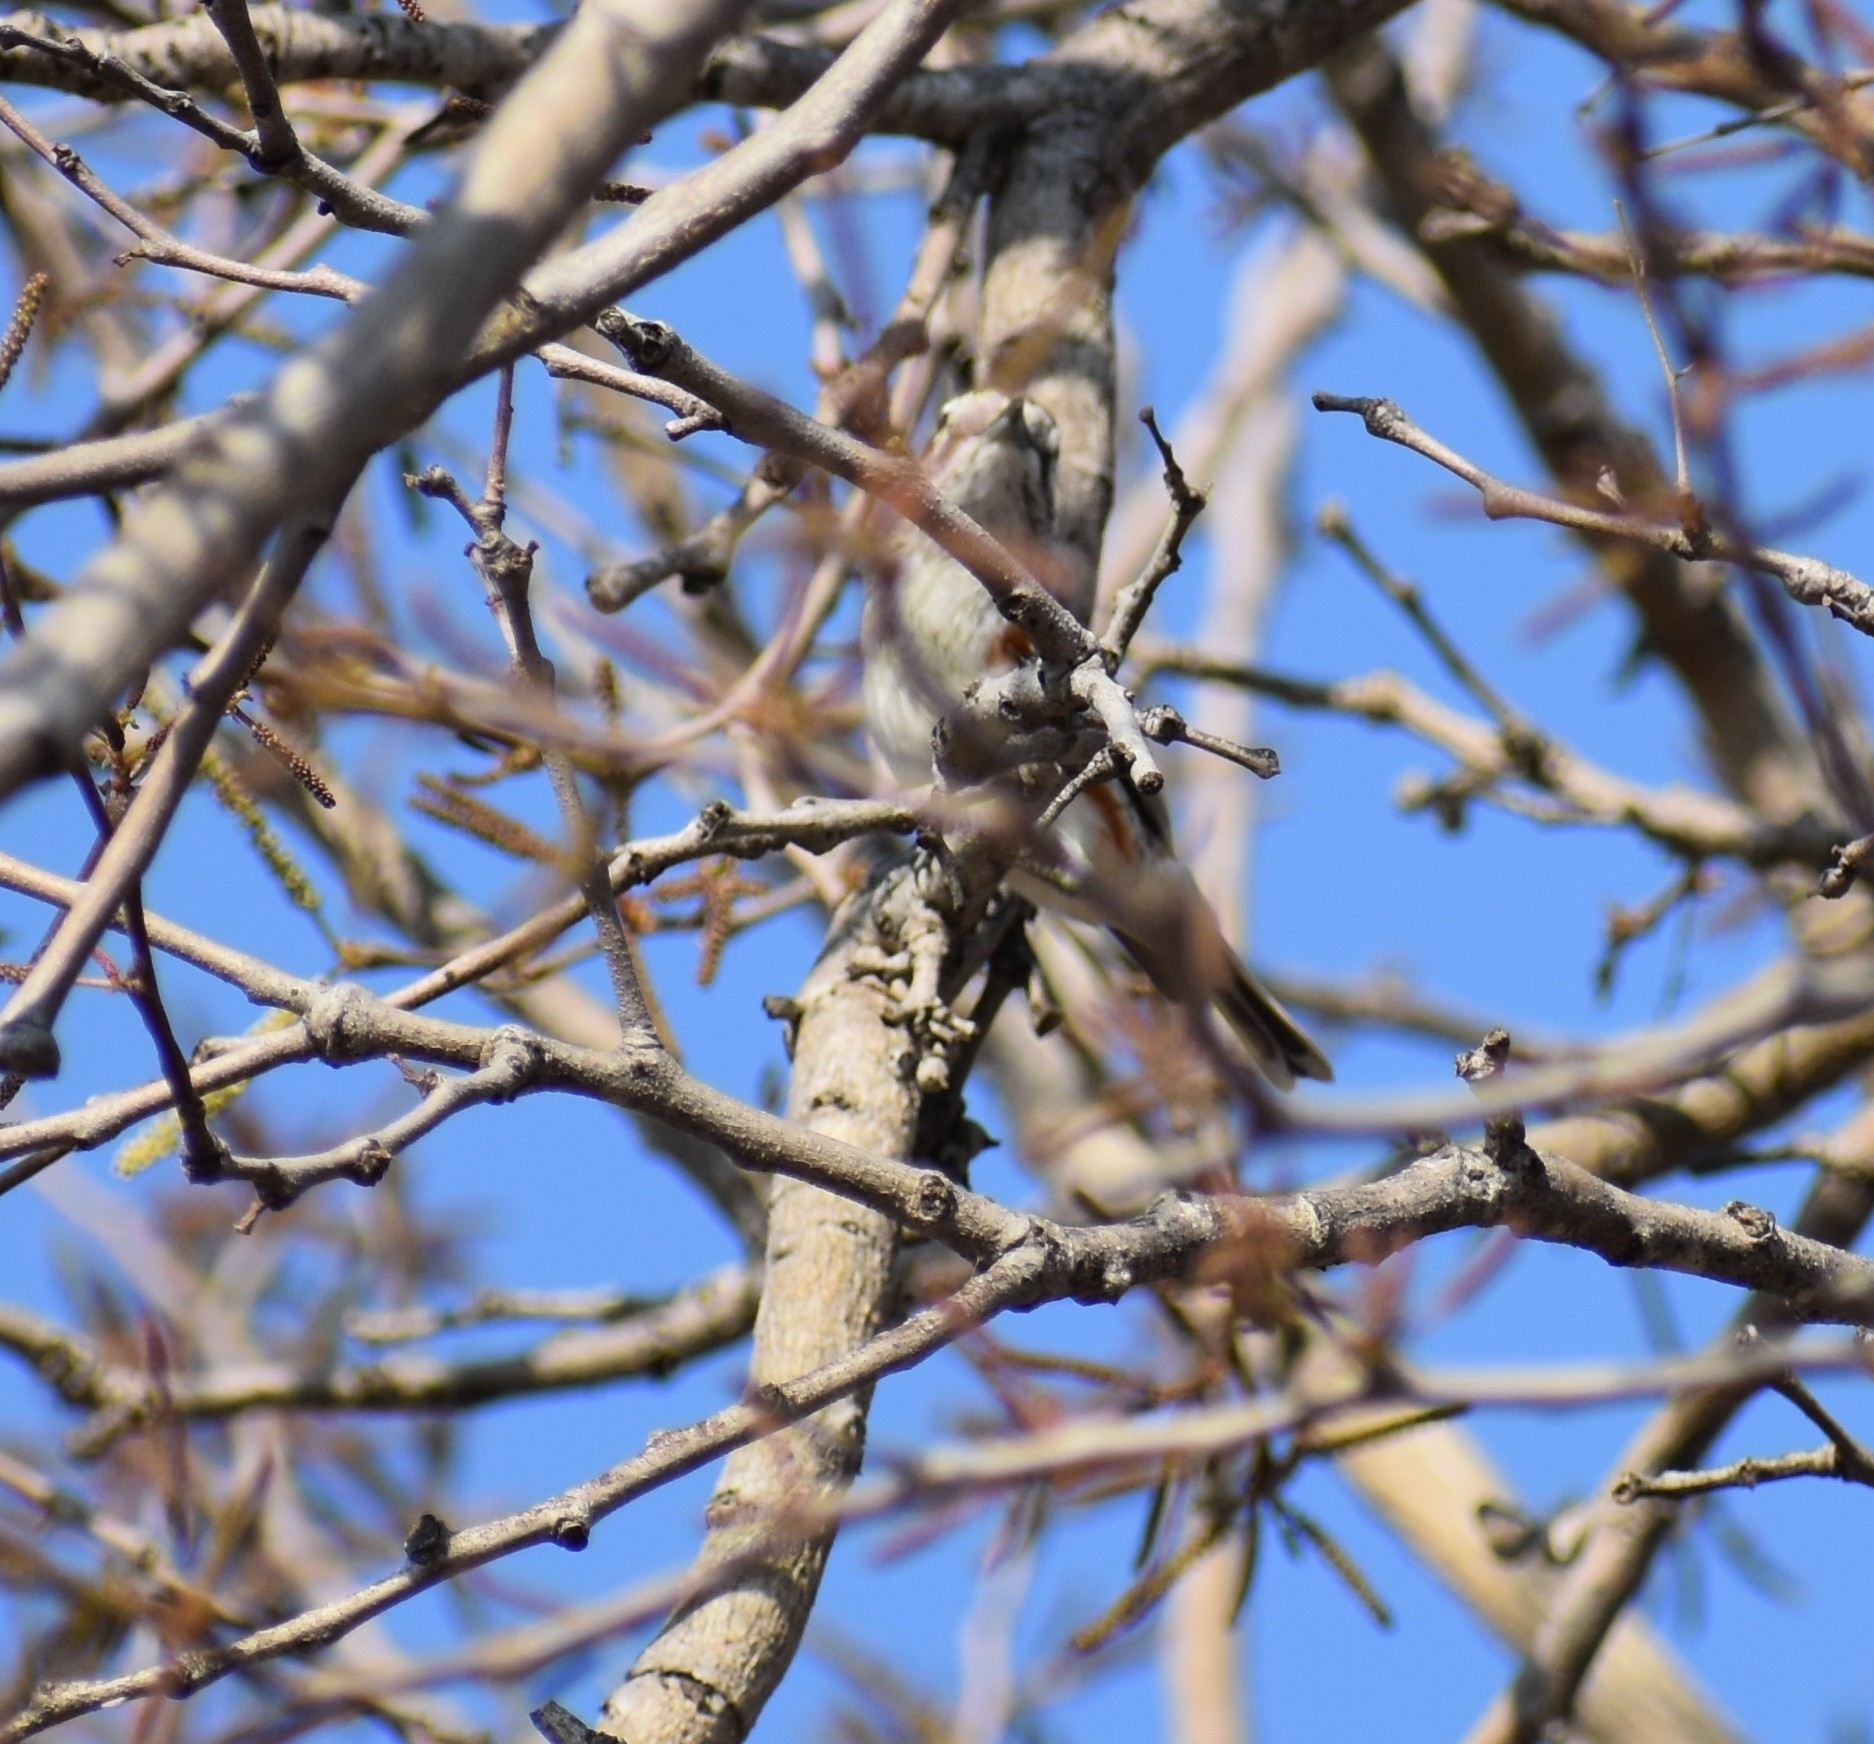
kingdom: Animalia
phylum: Chordata
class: Aves
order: Passeriformes
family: Malaconotidae
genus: Nilaus
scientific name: Nilaus afer
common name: Brubru
